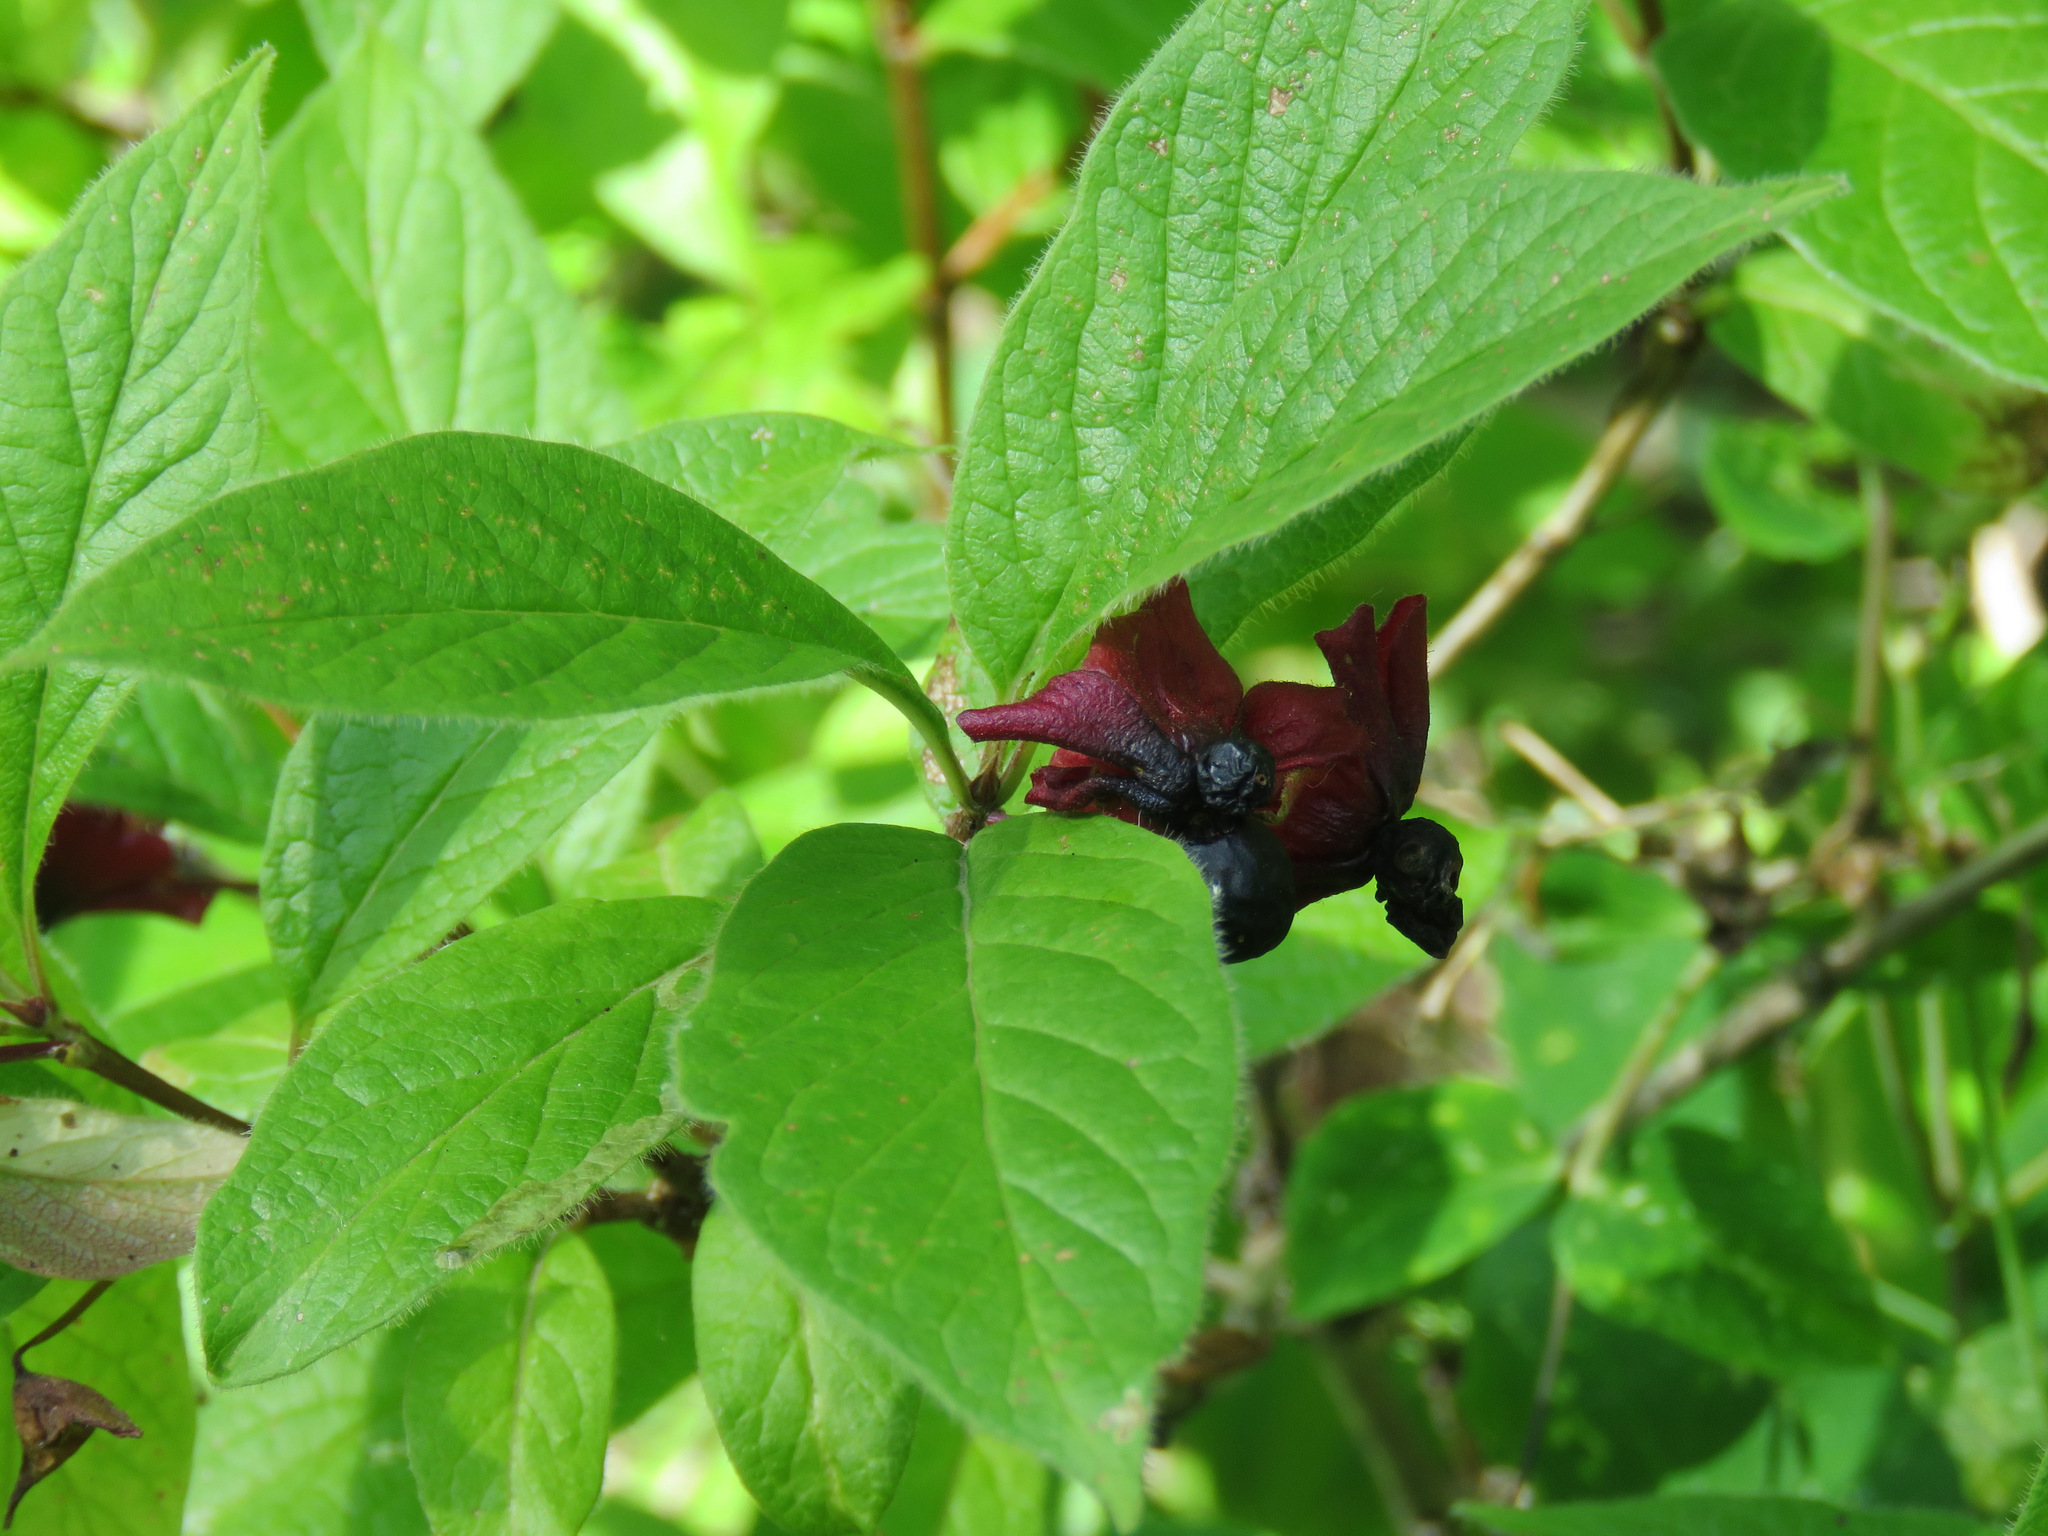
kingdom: Plantae
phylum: Tracheophyta
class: Magnoliopsida
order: Dipsacales
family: Caprifoliaceae
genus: Lonicera
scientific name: Lonicera involucrata
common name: Californian honeysuckle
